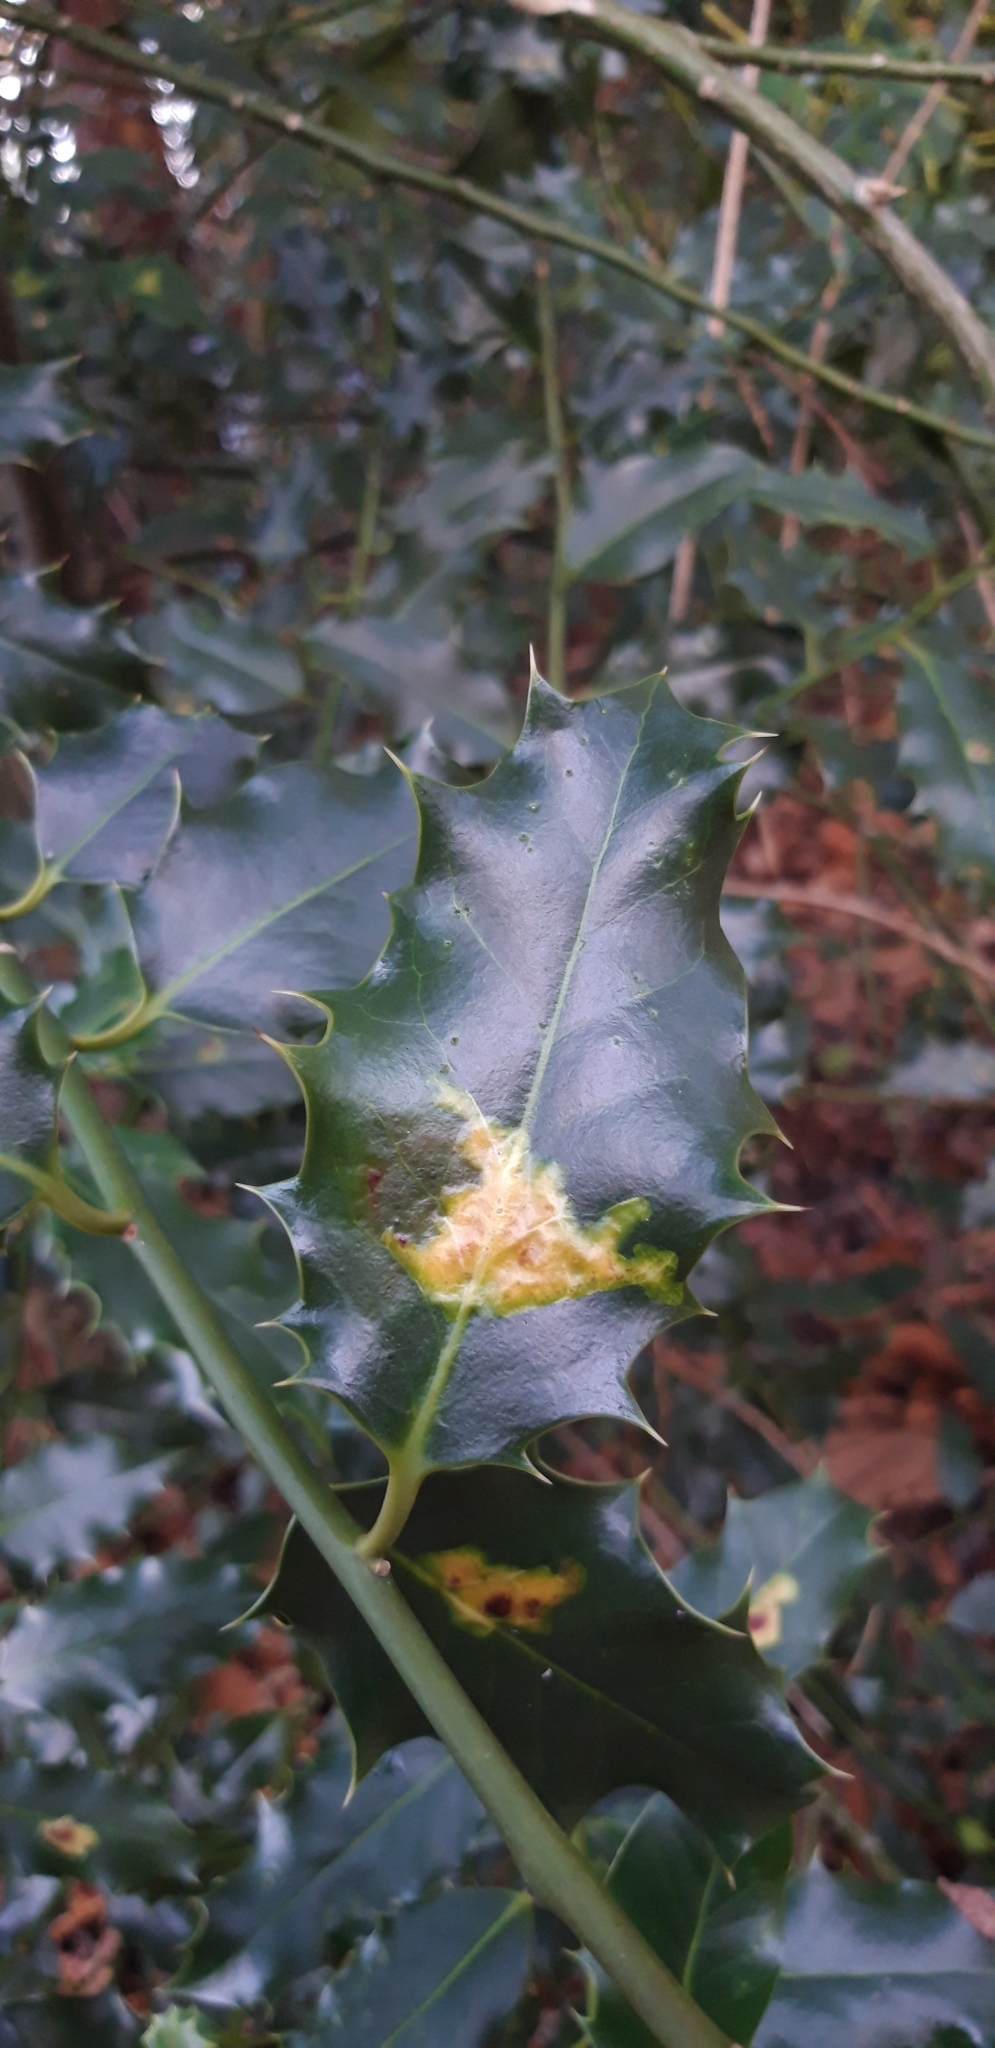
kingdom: Animalia
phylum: Arthropoda
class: Insecta
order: Diptera
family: Agromyzidae
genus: Phytomyza
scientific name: Phytomyza ilicis
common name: Holly leafminer
